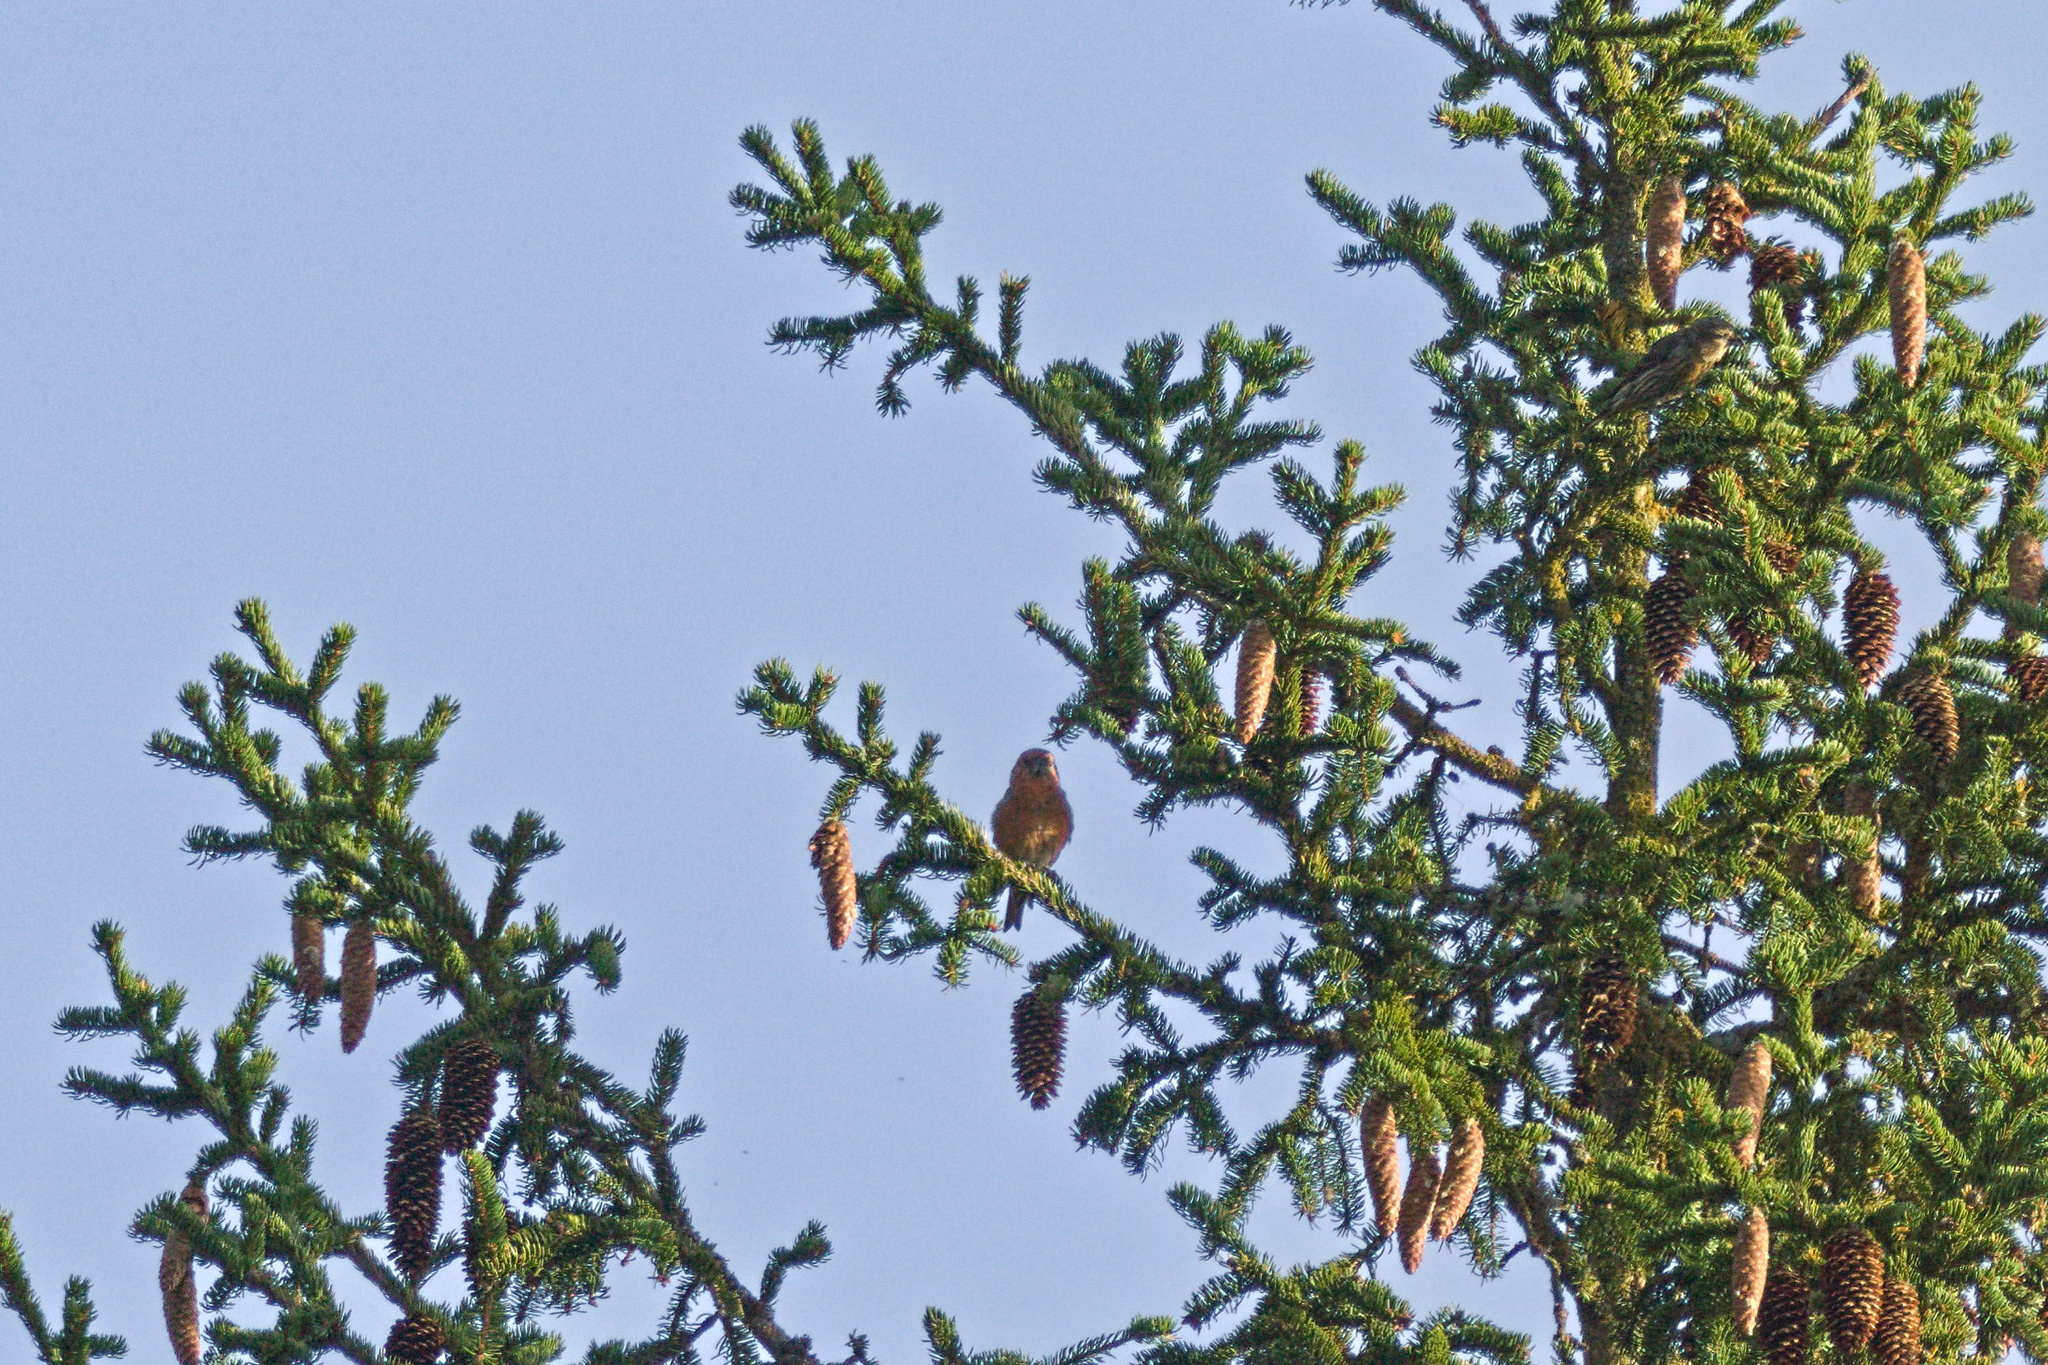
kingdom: Animalia
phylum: Chordata
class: Aves
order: Passeriformes
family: Fringillidae
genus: Loxia
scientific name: Loxia curvirostra
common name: Red crossbill
